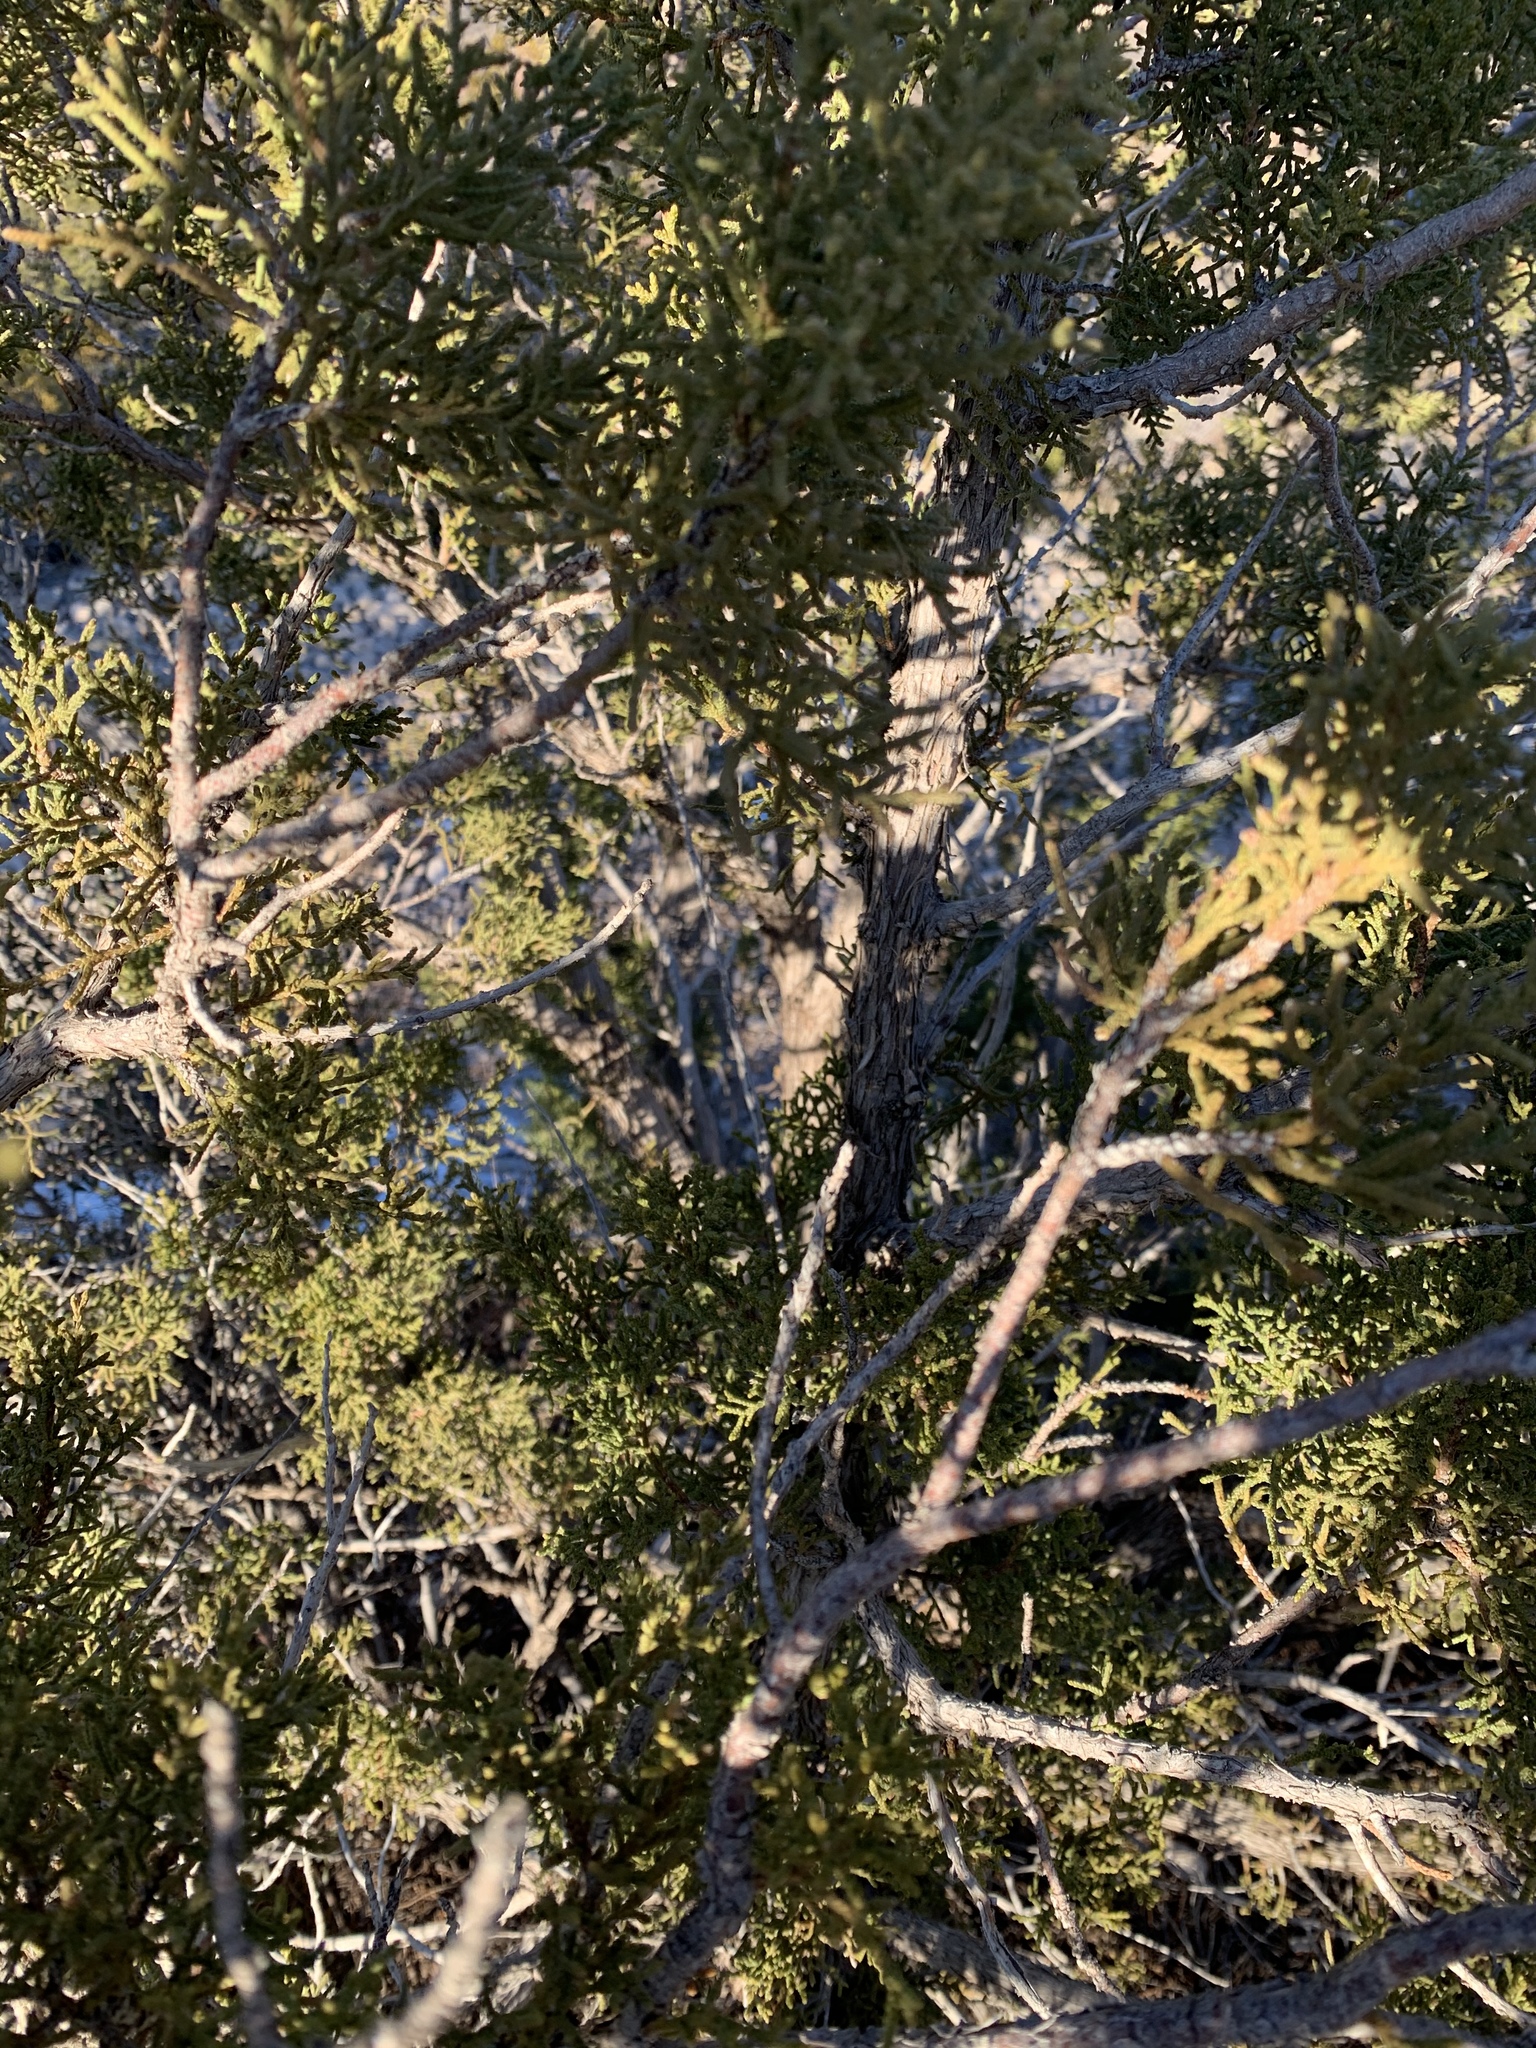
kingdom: Plantae
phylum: Tracheophyta
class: Pinopsida
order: Pinales
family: Cupressaceae
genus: Juniperus
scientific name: Juniperus monosperma
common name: One-seed juniper
